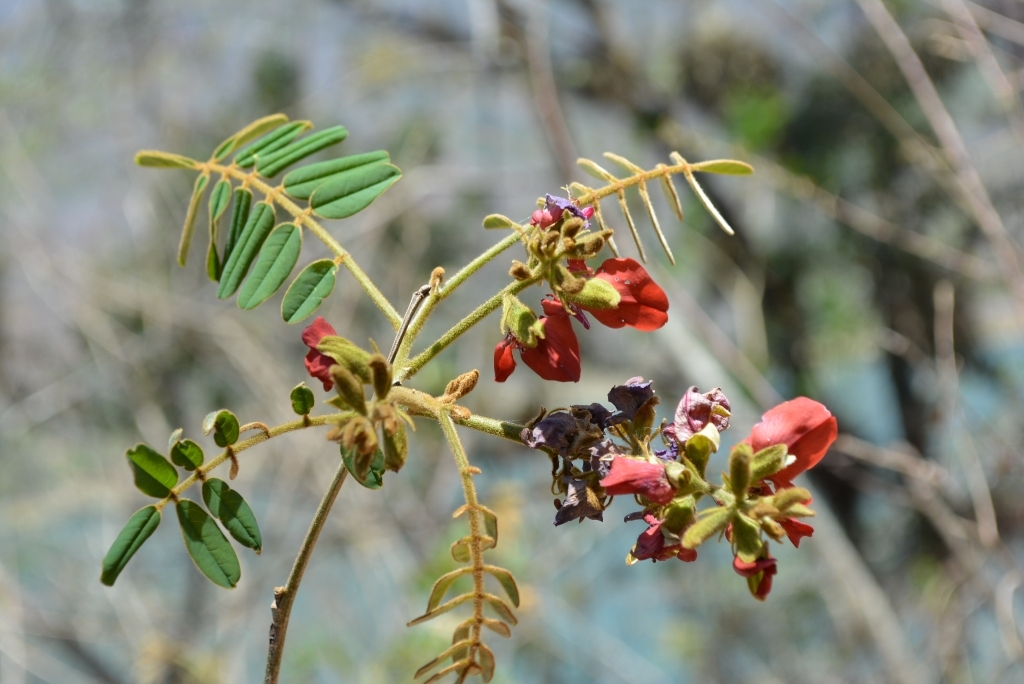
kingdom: Plantae
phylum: Tracheophyta
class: Magnoliopsida
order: Fabales
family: Fabaceae
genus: Harpalyce
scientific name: Harpalyce formosa
